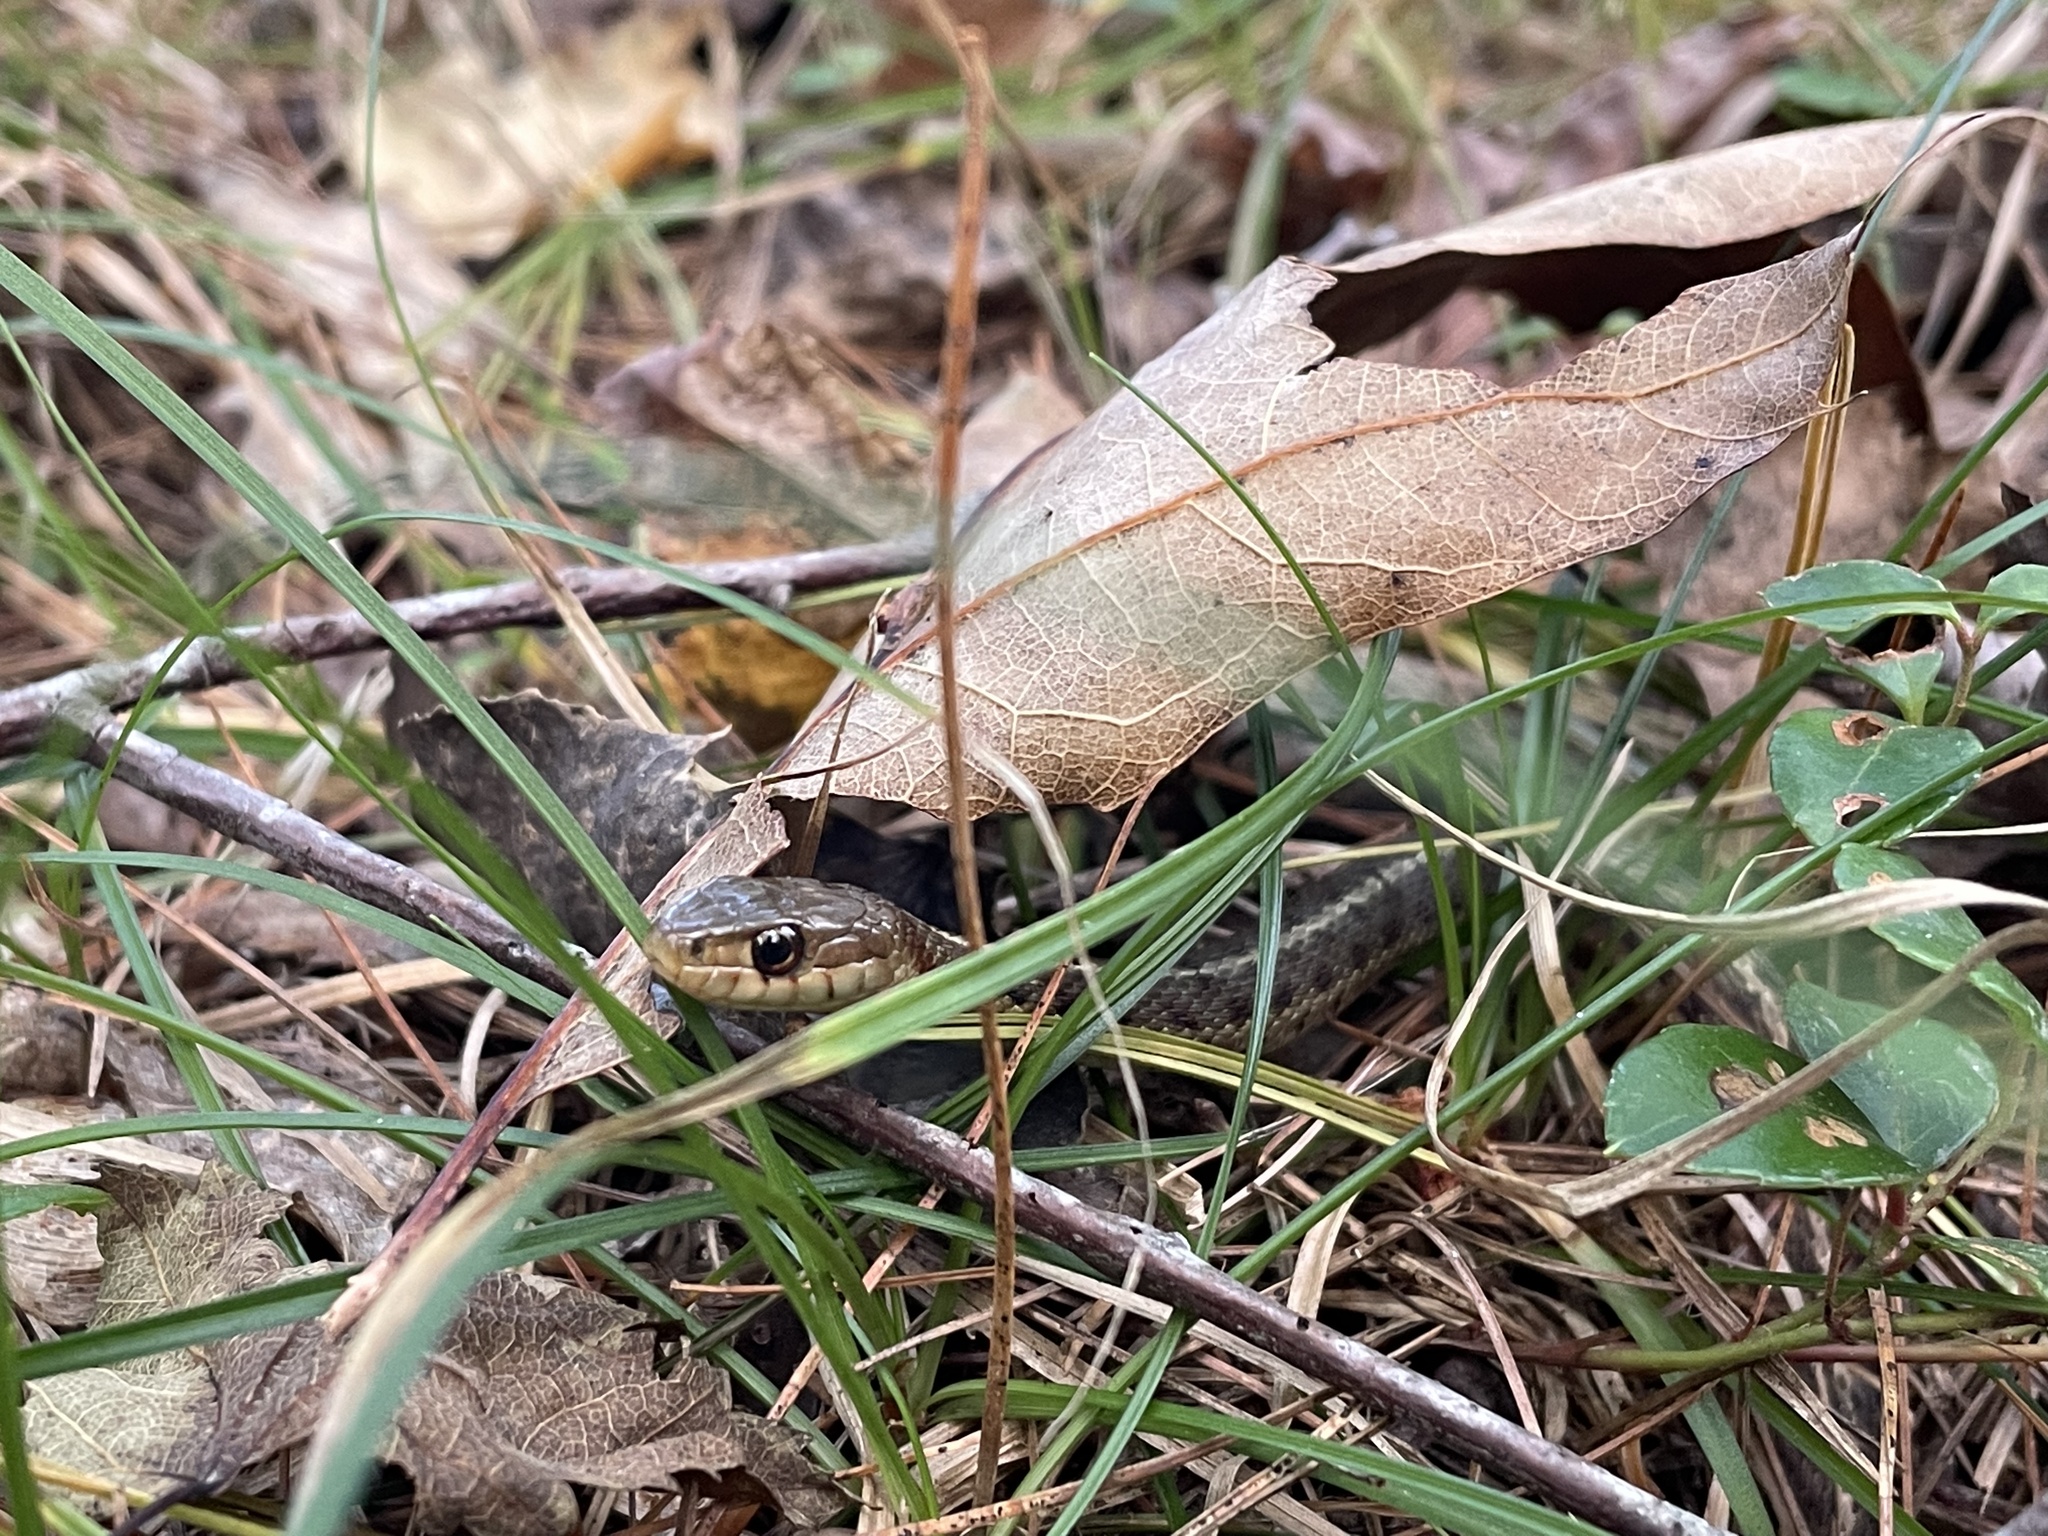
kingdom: Animalia
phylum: Chordata
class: Squamata
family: Colubridae
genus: Thamnophis
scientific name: Thamnophis sirtalis
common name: Common garter snake
